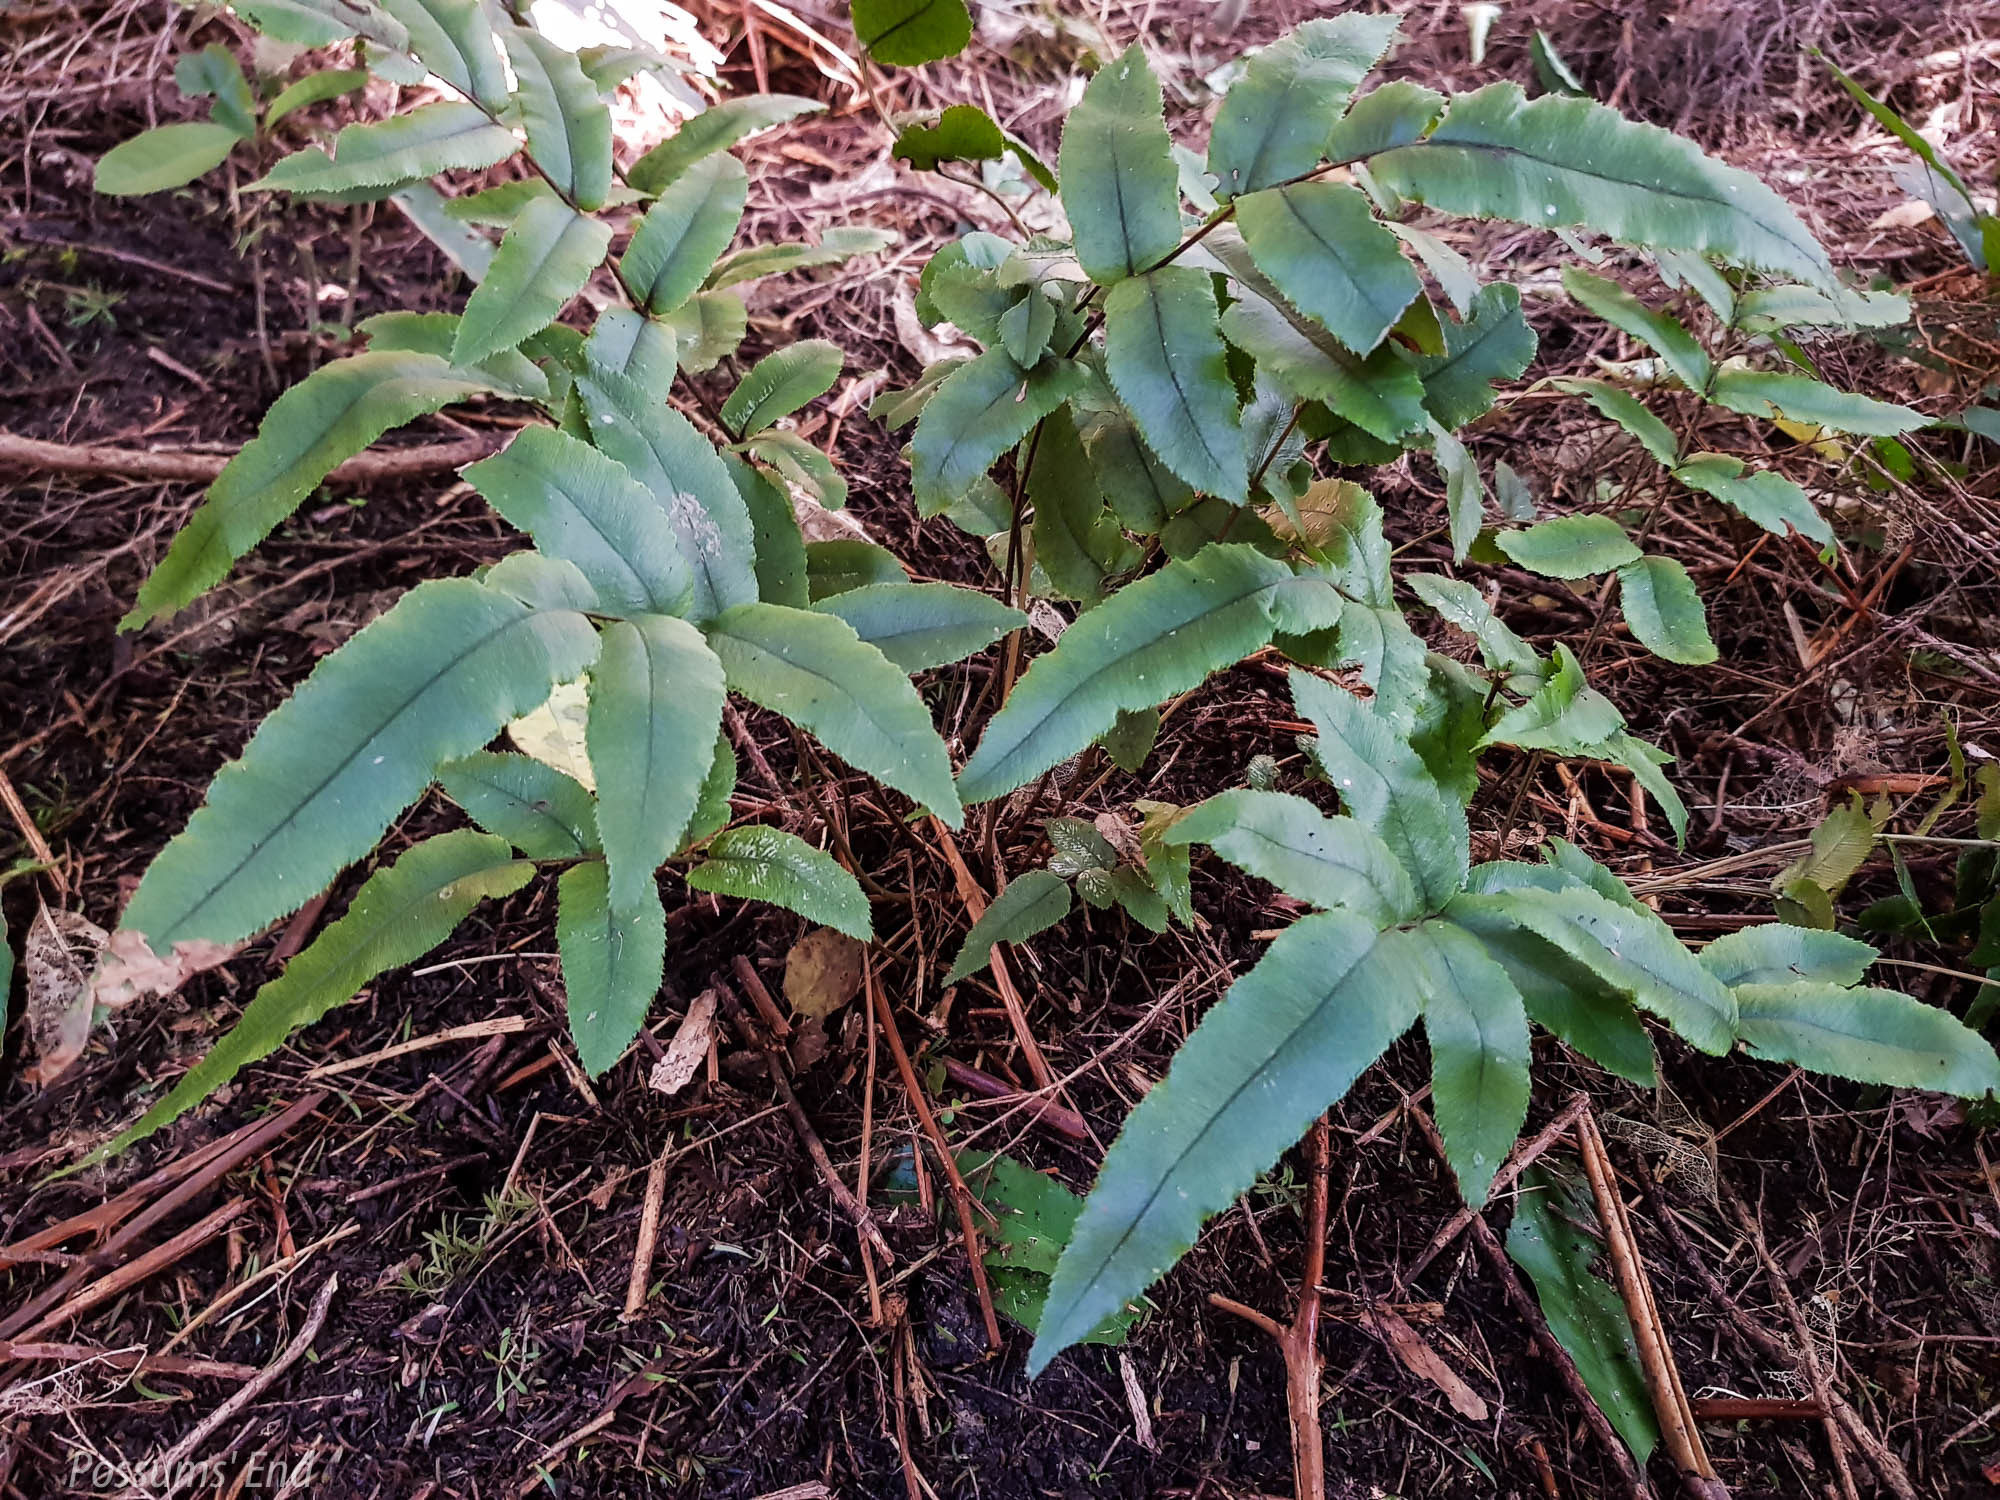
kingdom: Plantae
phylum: Tracheophyta
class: Polypodiopsida
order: Polypodiales
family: Blechnaceae
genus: Parablechnum
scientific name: Parablechnum procerum
